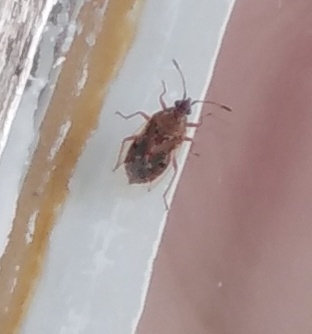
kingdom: Animalia
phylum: Arthropoda
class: Insecta
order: Hemiptera
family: Lygaeidae
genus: Kleidocerys
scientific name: Kleidocerys resedae
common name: Birch catkin bug
